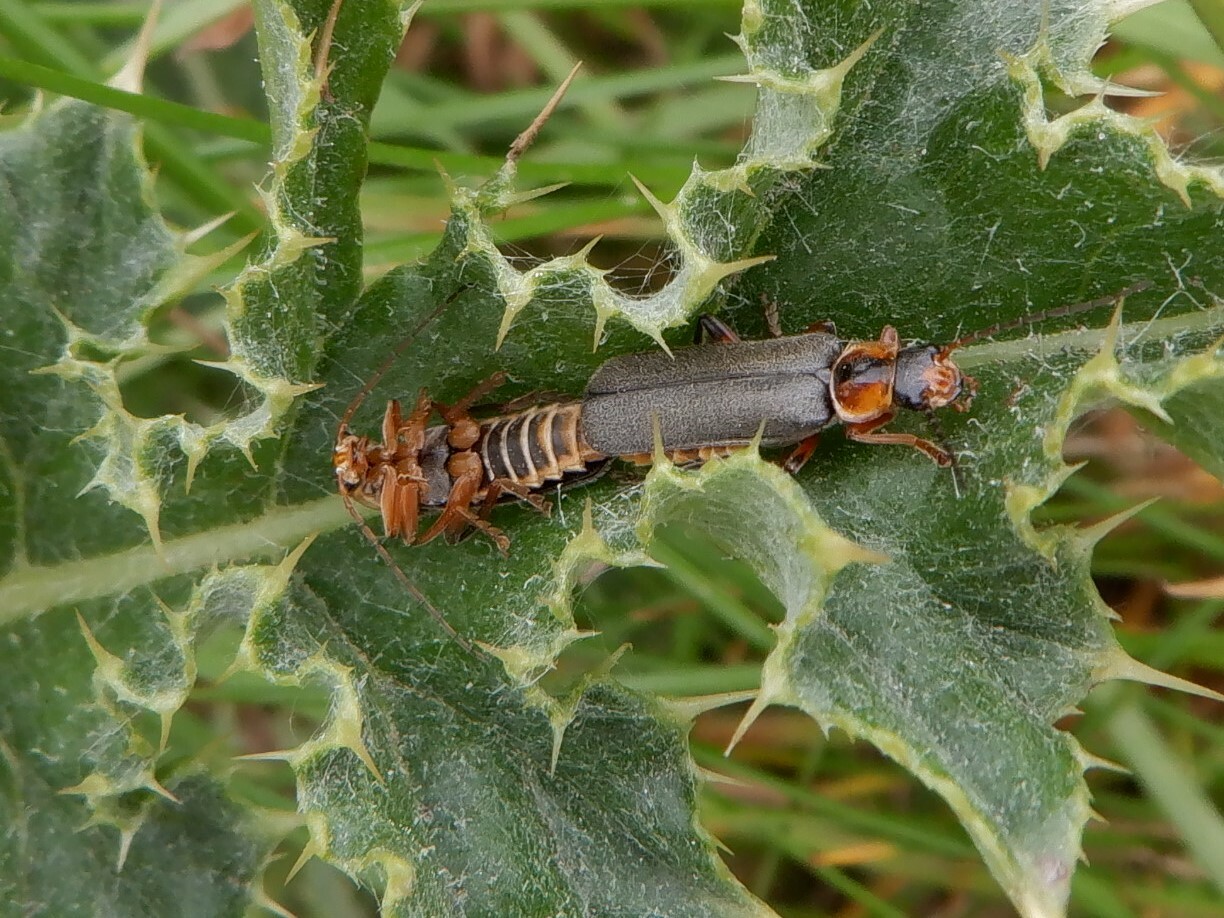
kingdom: Animalia
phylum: Arthropoda
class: Insecta
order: Coleoptera
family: Cantharidae
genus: Cantharis
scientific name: Cantharis nigricans
